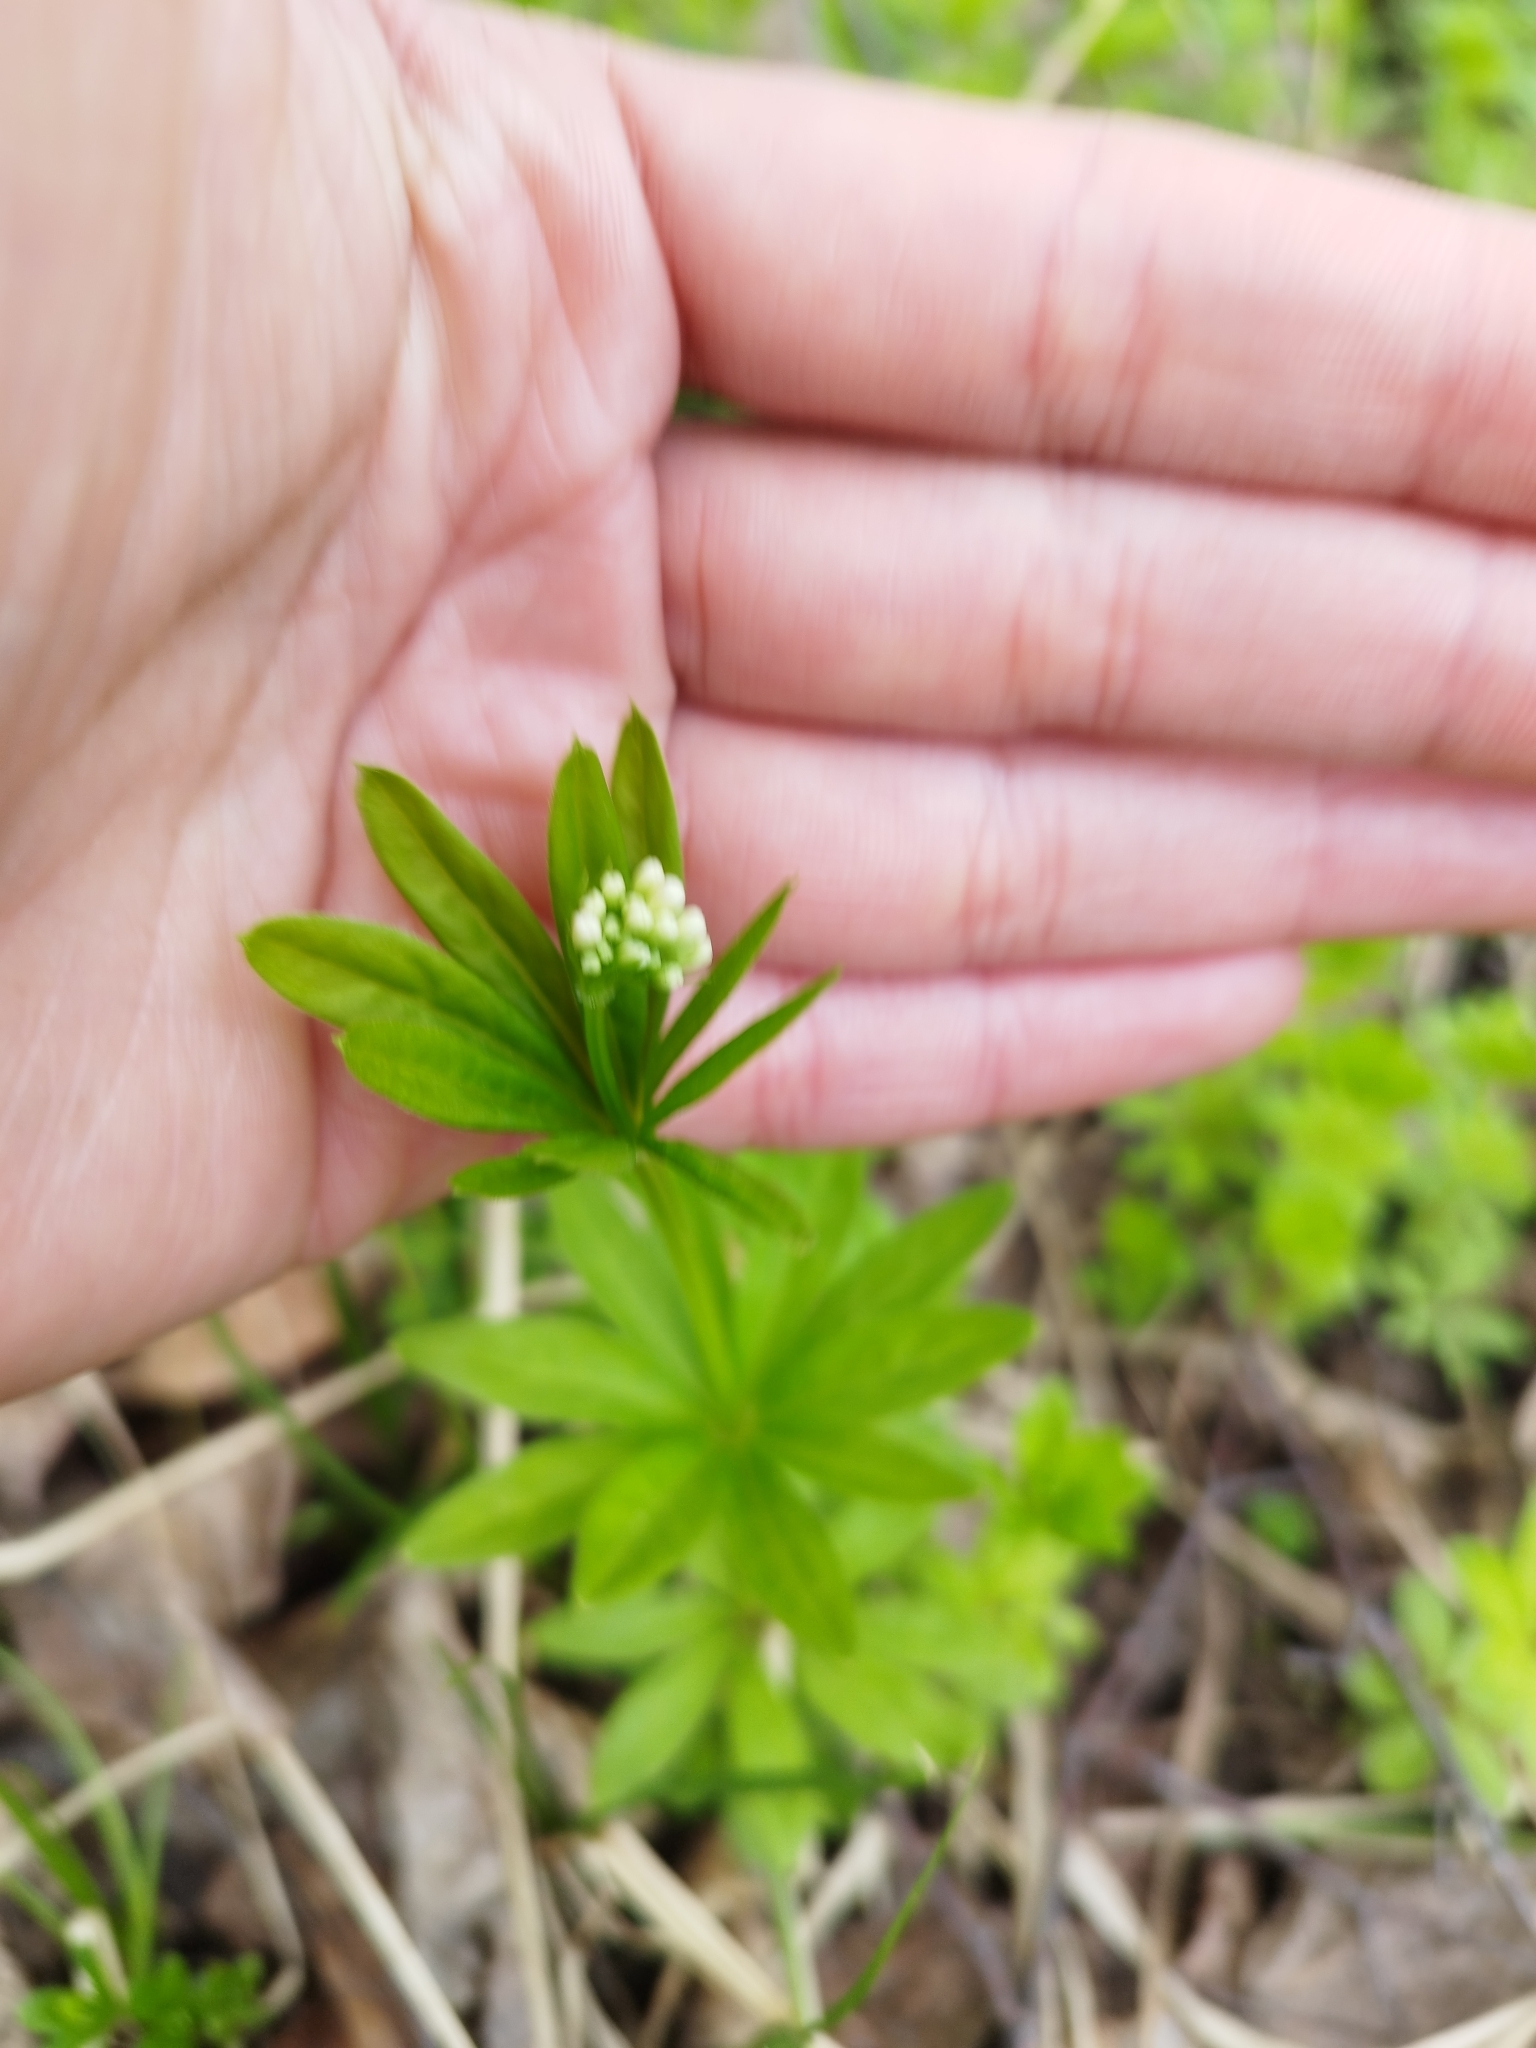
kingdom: Plantae
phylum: Tracheophyta
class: Magnoliopsida
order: Gentianales
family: Rubiaceae
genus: Galium
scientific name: Galium odoratum
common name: Sweet woodruff
